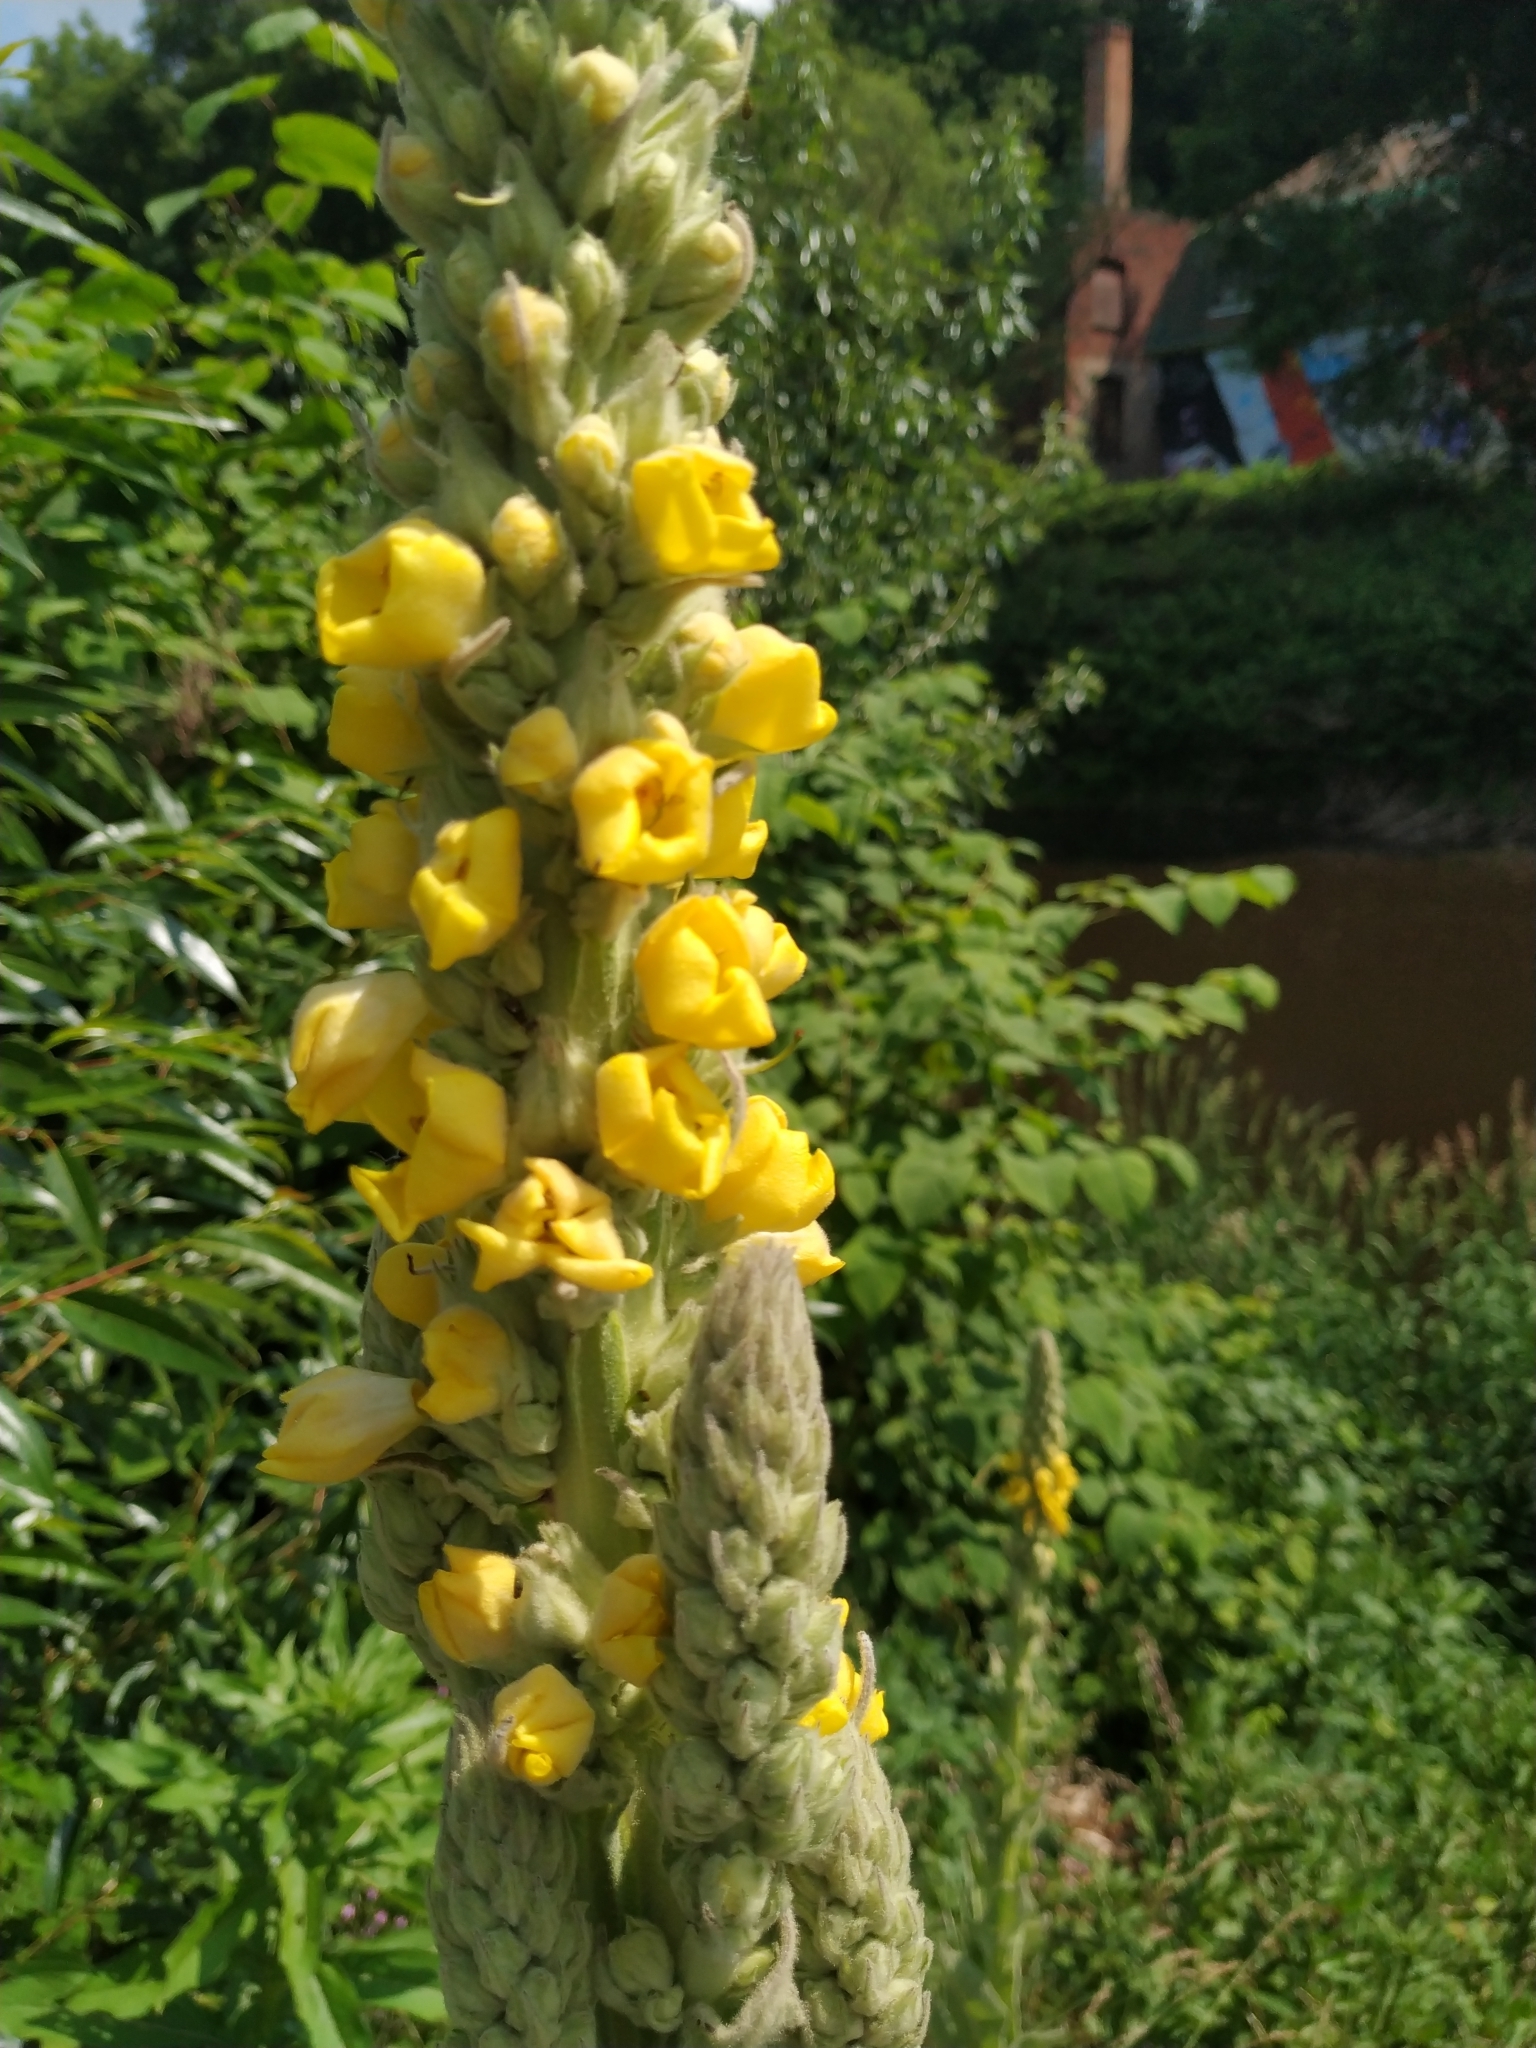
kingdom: Plantae
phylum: Tracheophyta
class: Magnoliopsida
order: Lamiales
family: Scrophulariaceae
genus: Verbascum
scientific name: Verbascum thapsus
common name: Common mullein
